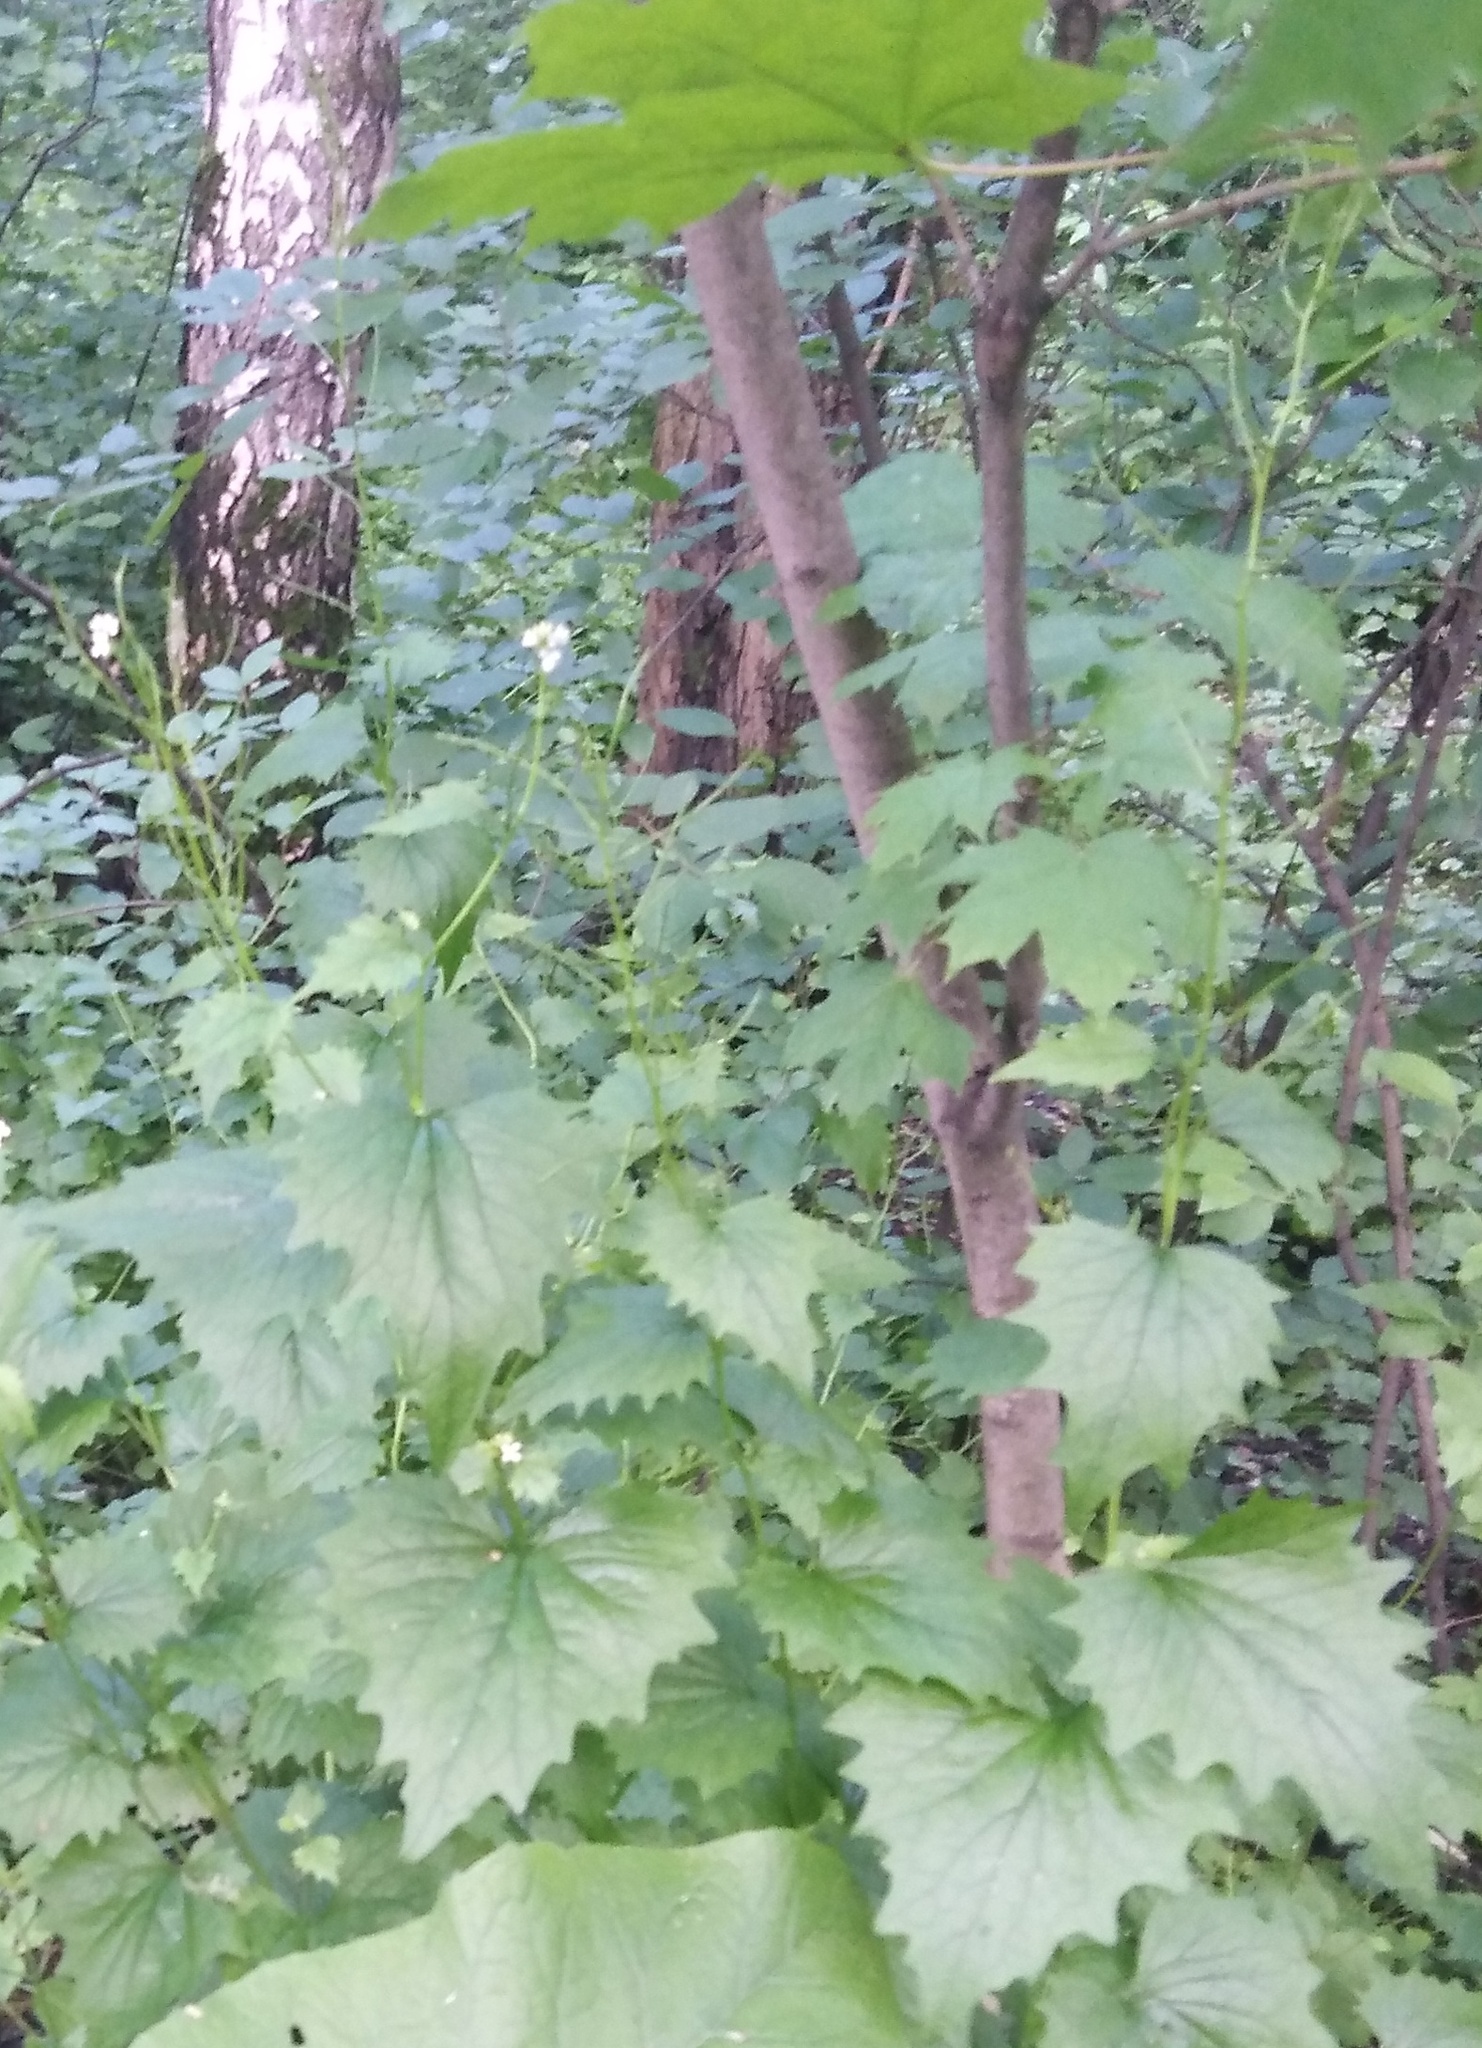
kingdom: Plantae
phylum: Tracheophyta
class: Magnoliopsida
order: Brassicales
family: Brassicaceae
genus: Alliaria
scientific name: Alliaria petiolata
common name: Garlic mustard
